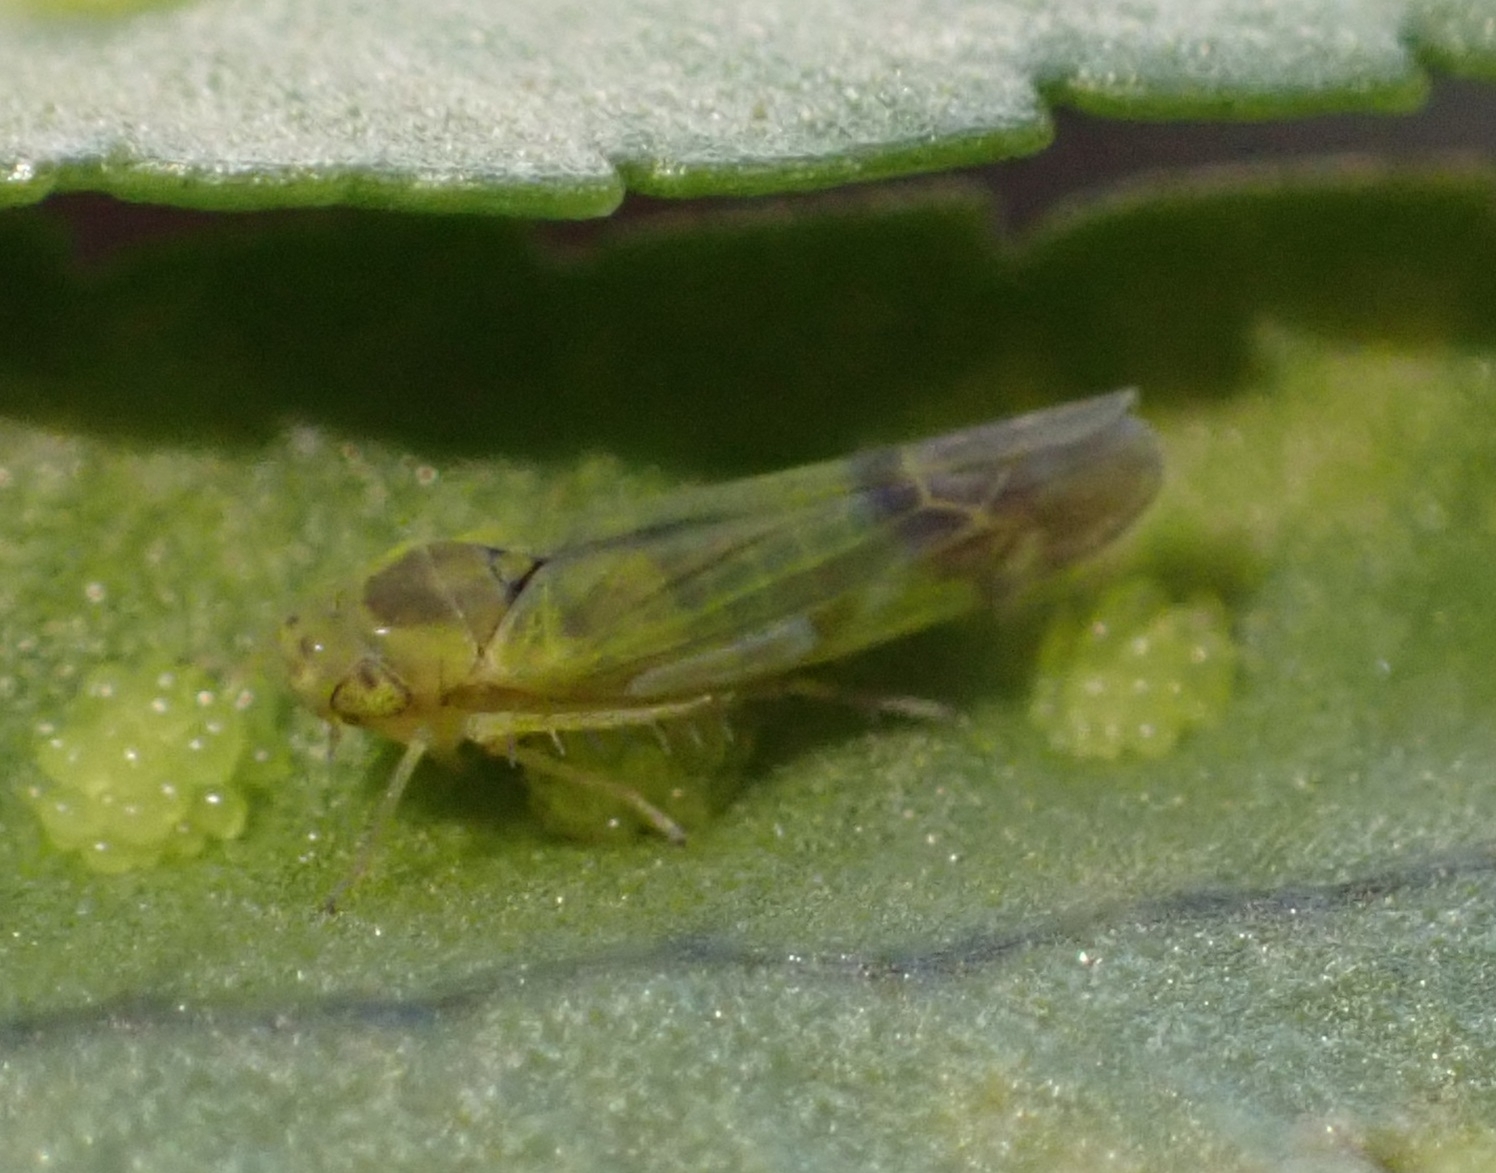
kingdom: Animalia
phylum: Arthropoda
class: Insecta
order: Hemiptera
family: Cicadellidae
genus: Eupteryx
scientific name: Eupteryx filicum
